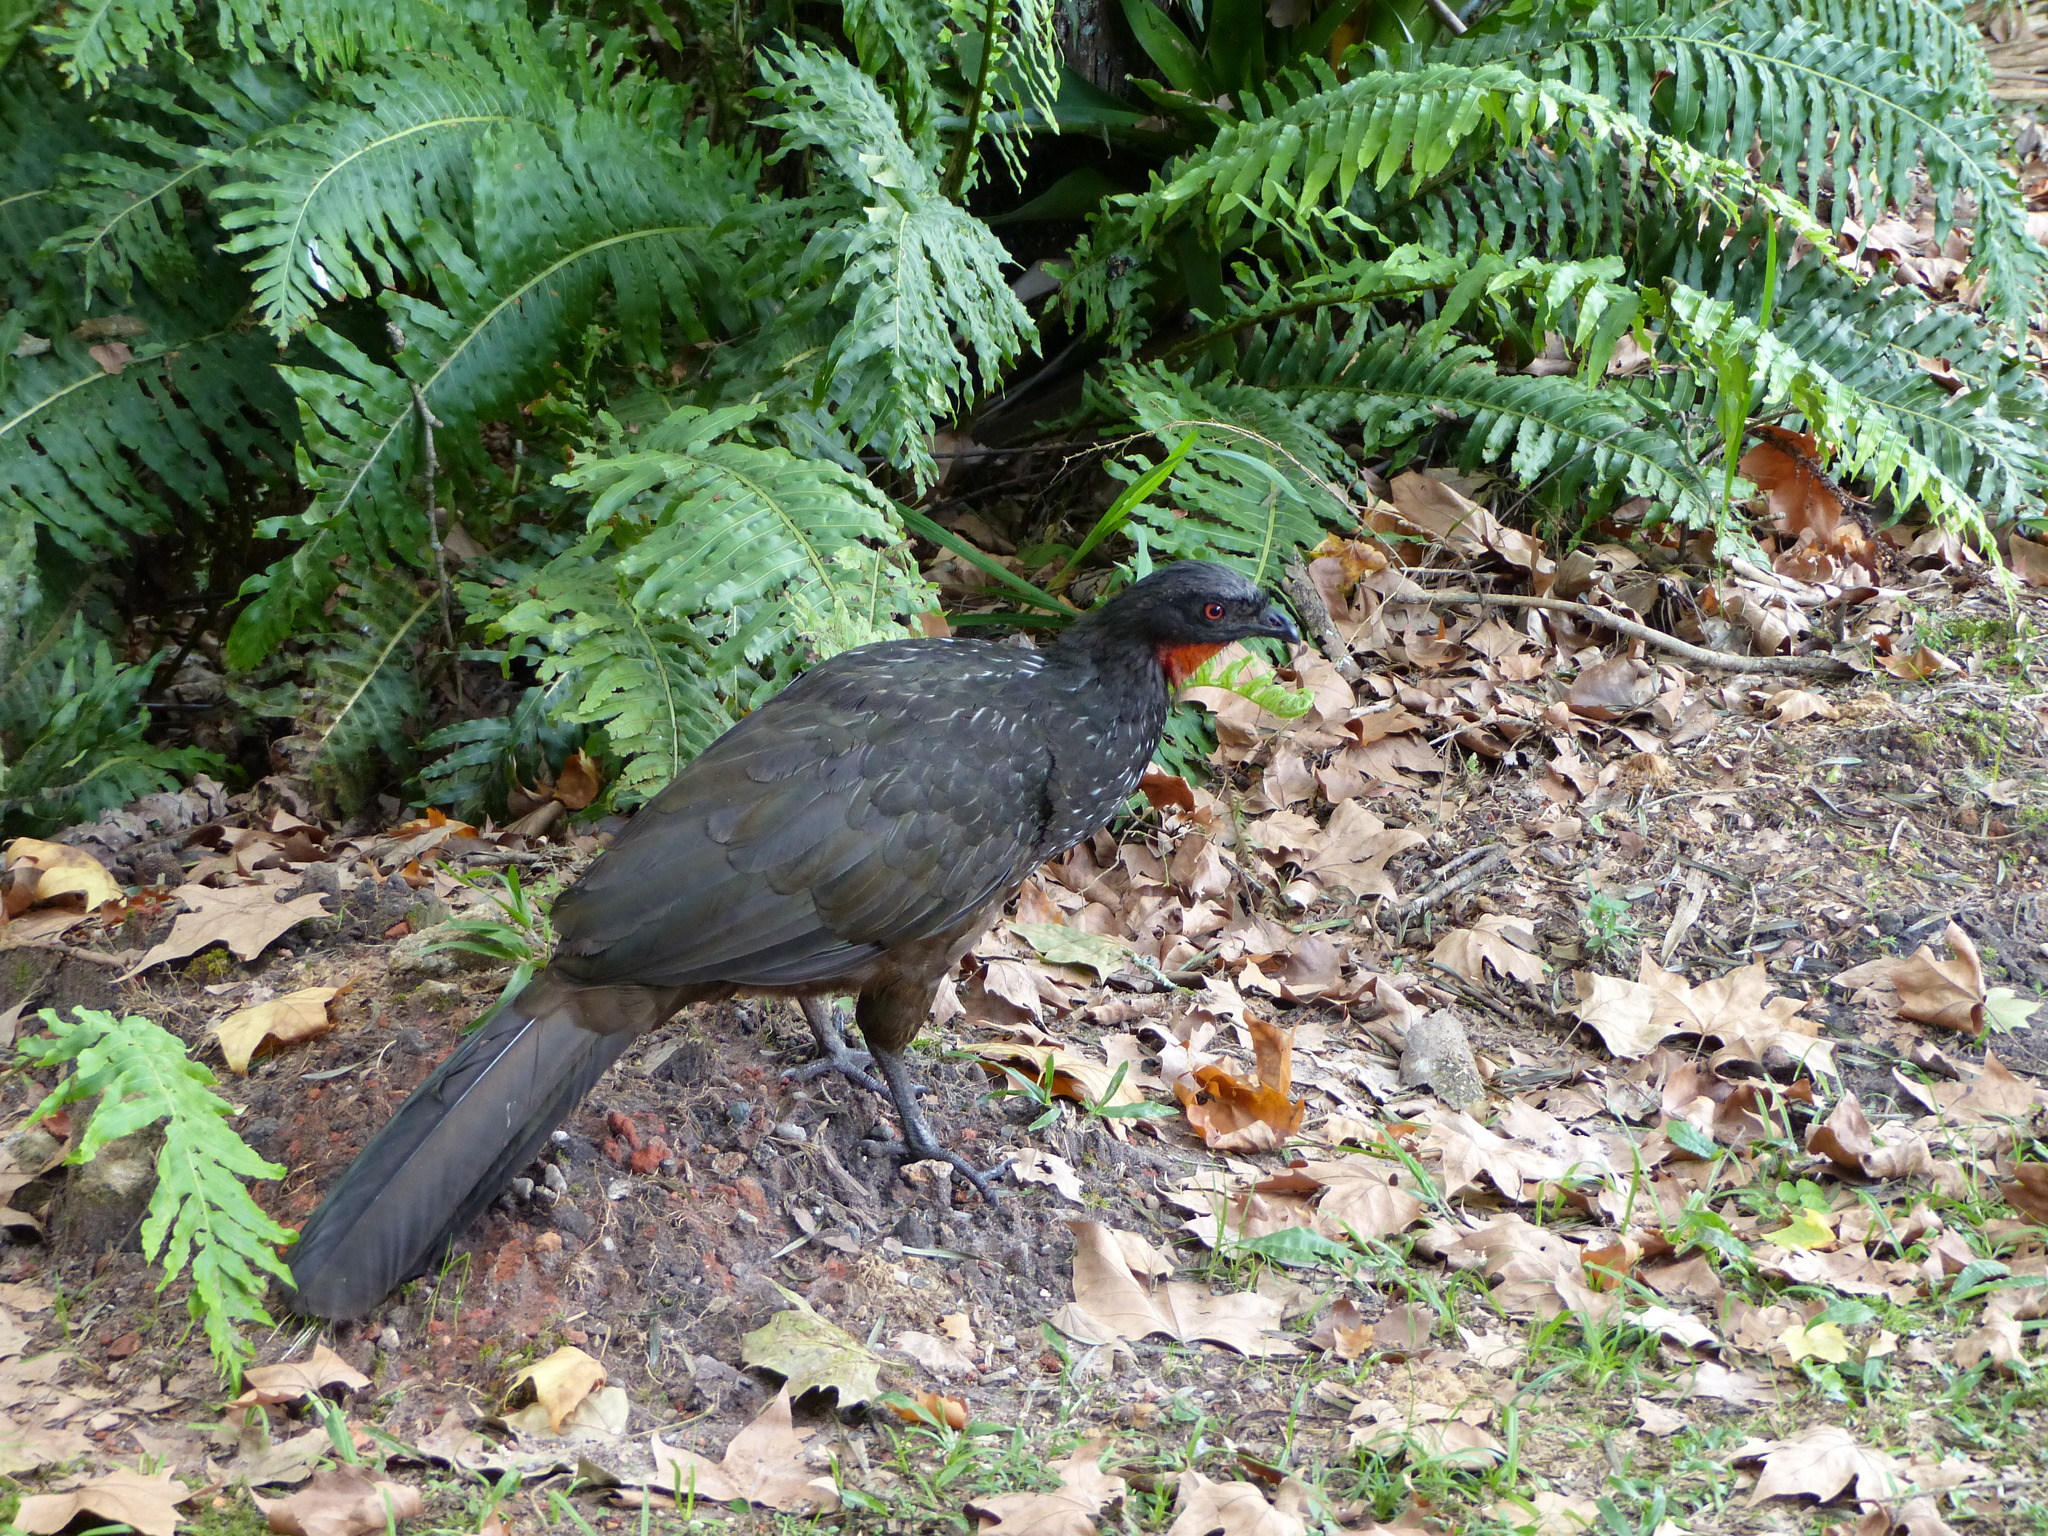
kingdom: Animalia
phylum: Chordata
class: Aves
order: Galliformes
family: Cracidae
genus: Penelope
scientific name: Penelope obscura
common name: Dusky-legged guan
